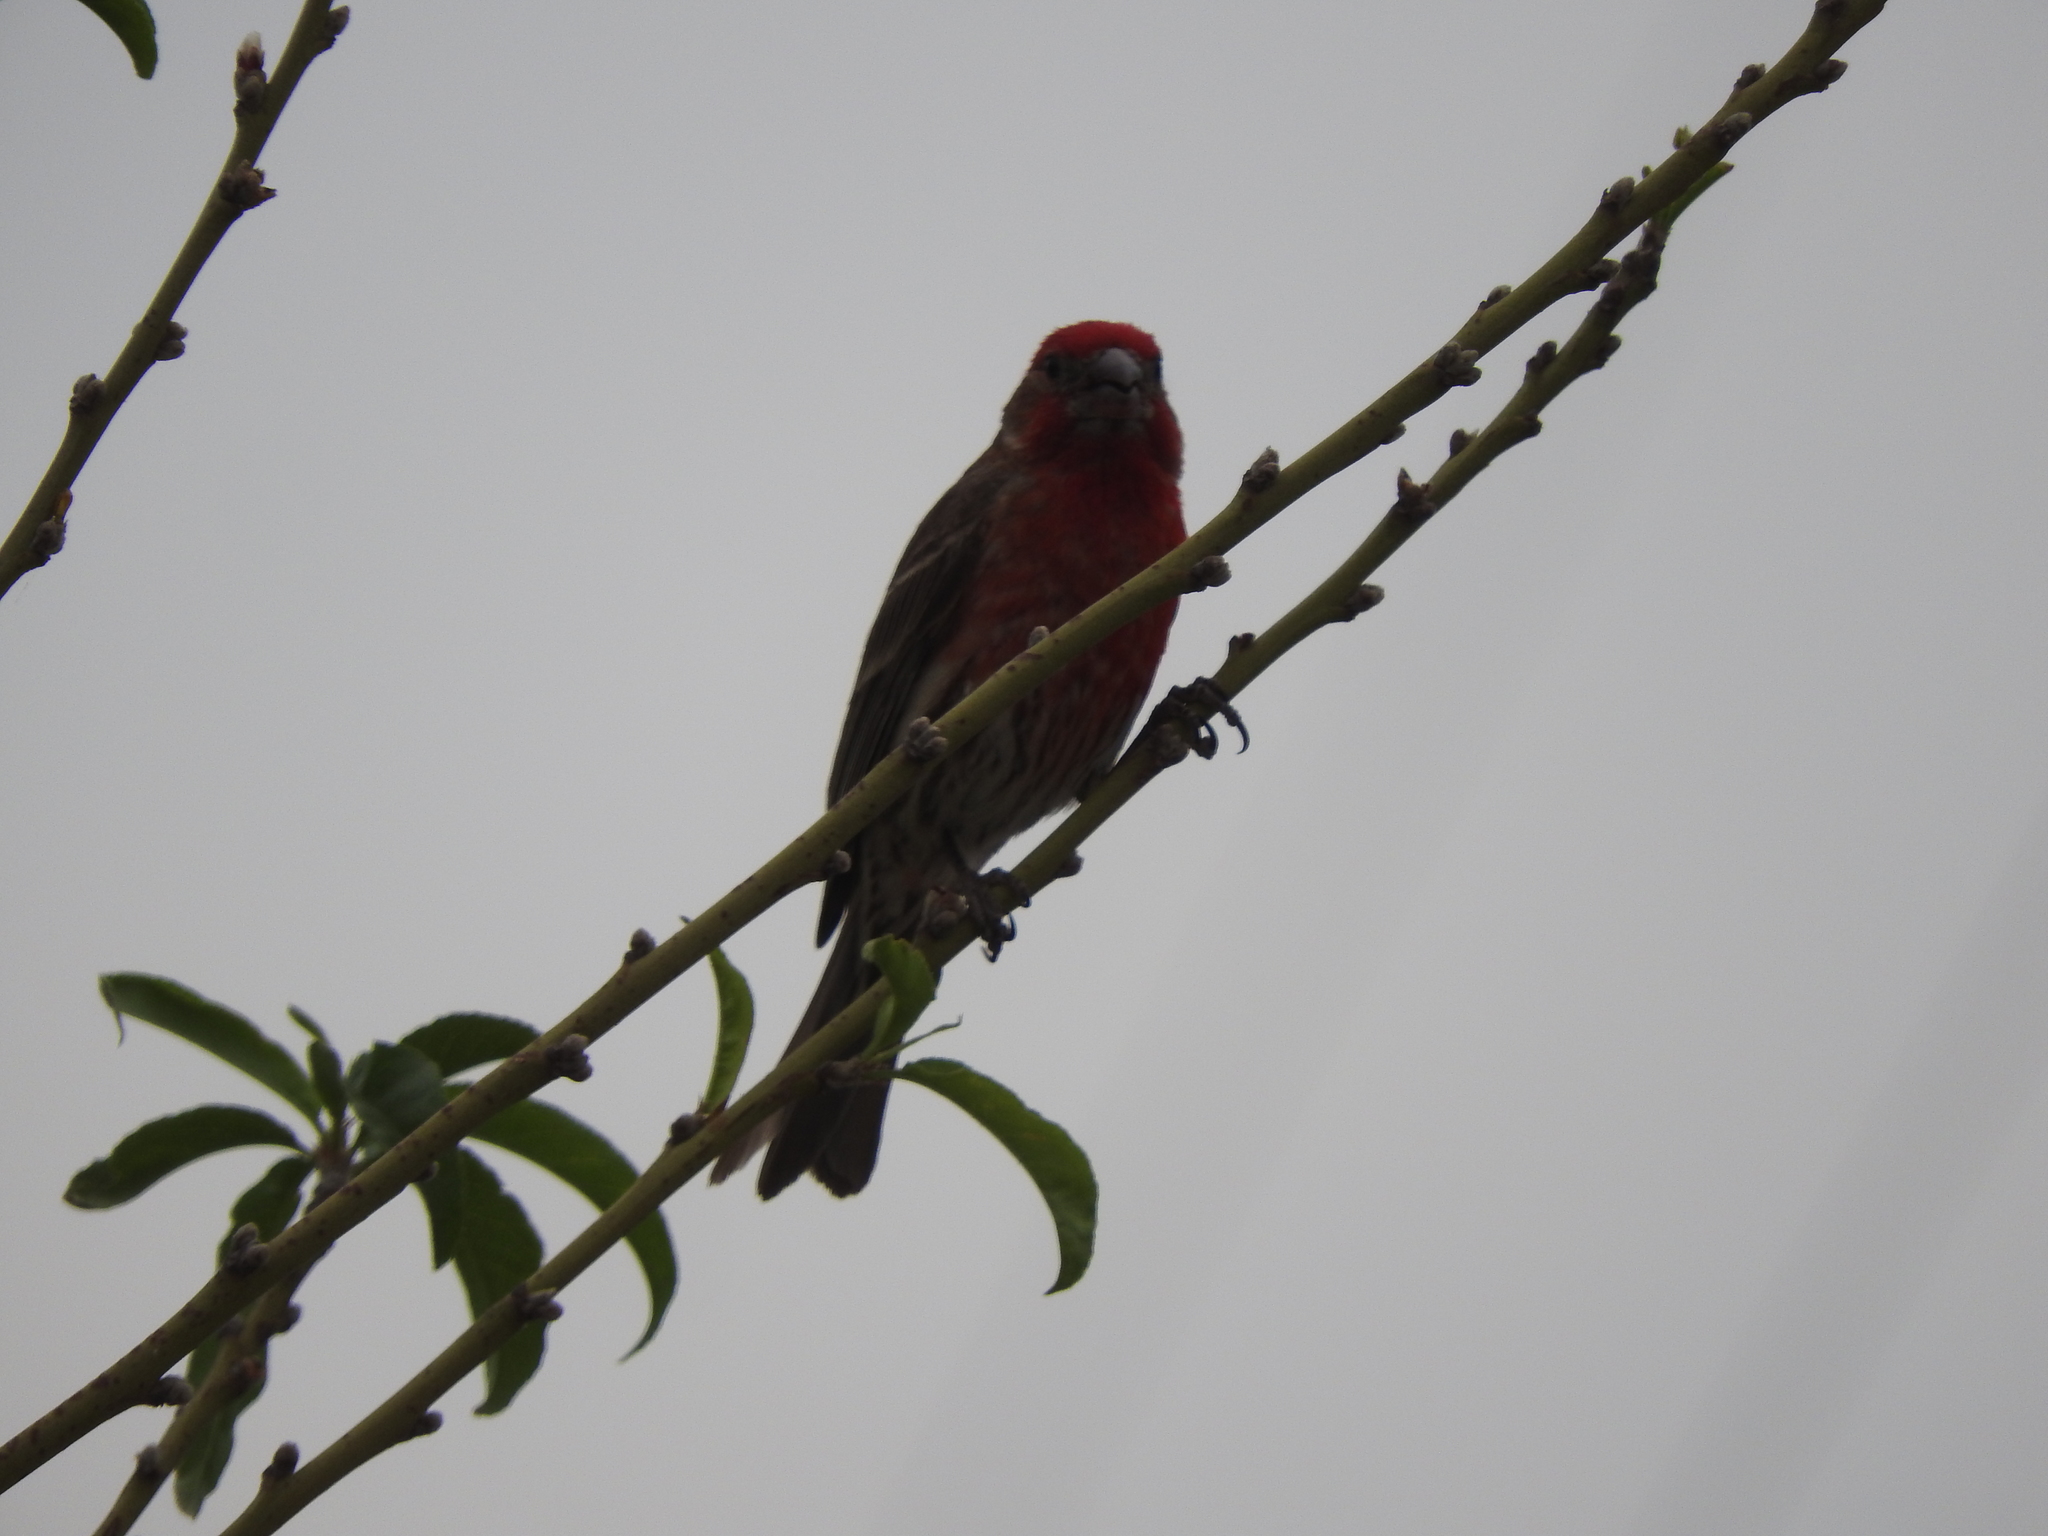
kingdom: Animalia
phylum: Chordata
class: Aves
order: Passeriformes
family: Fringillidae
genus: Haemorhous
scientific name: Haemorhous mexicanus
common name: House finch
